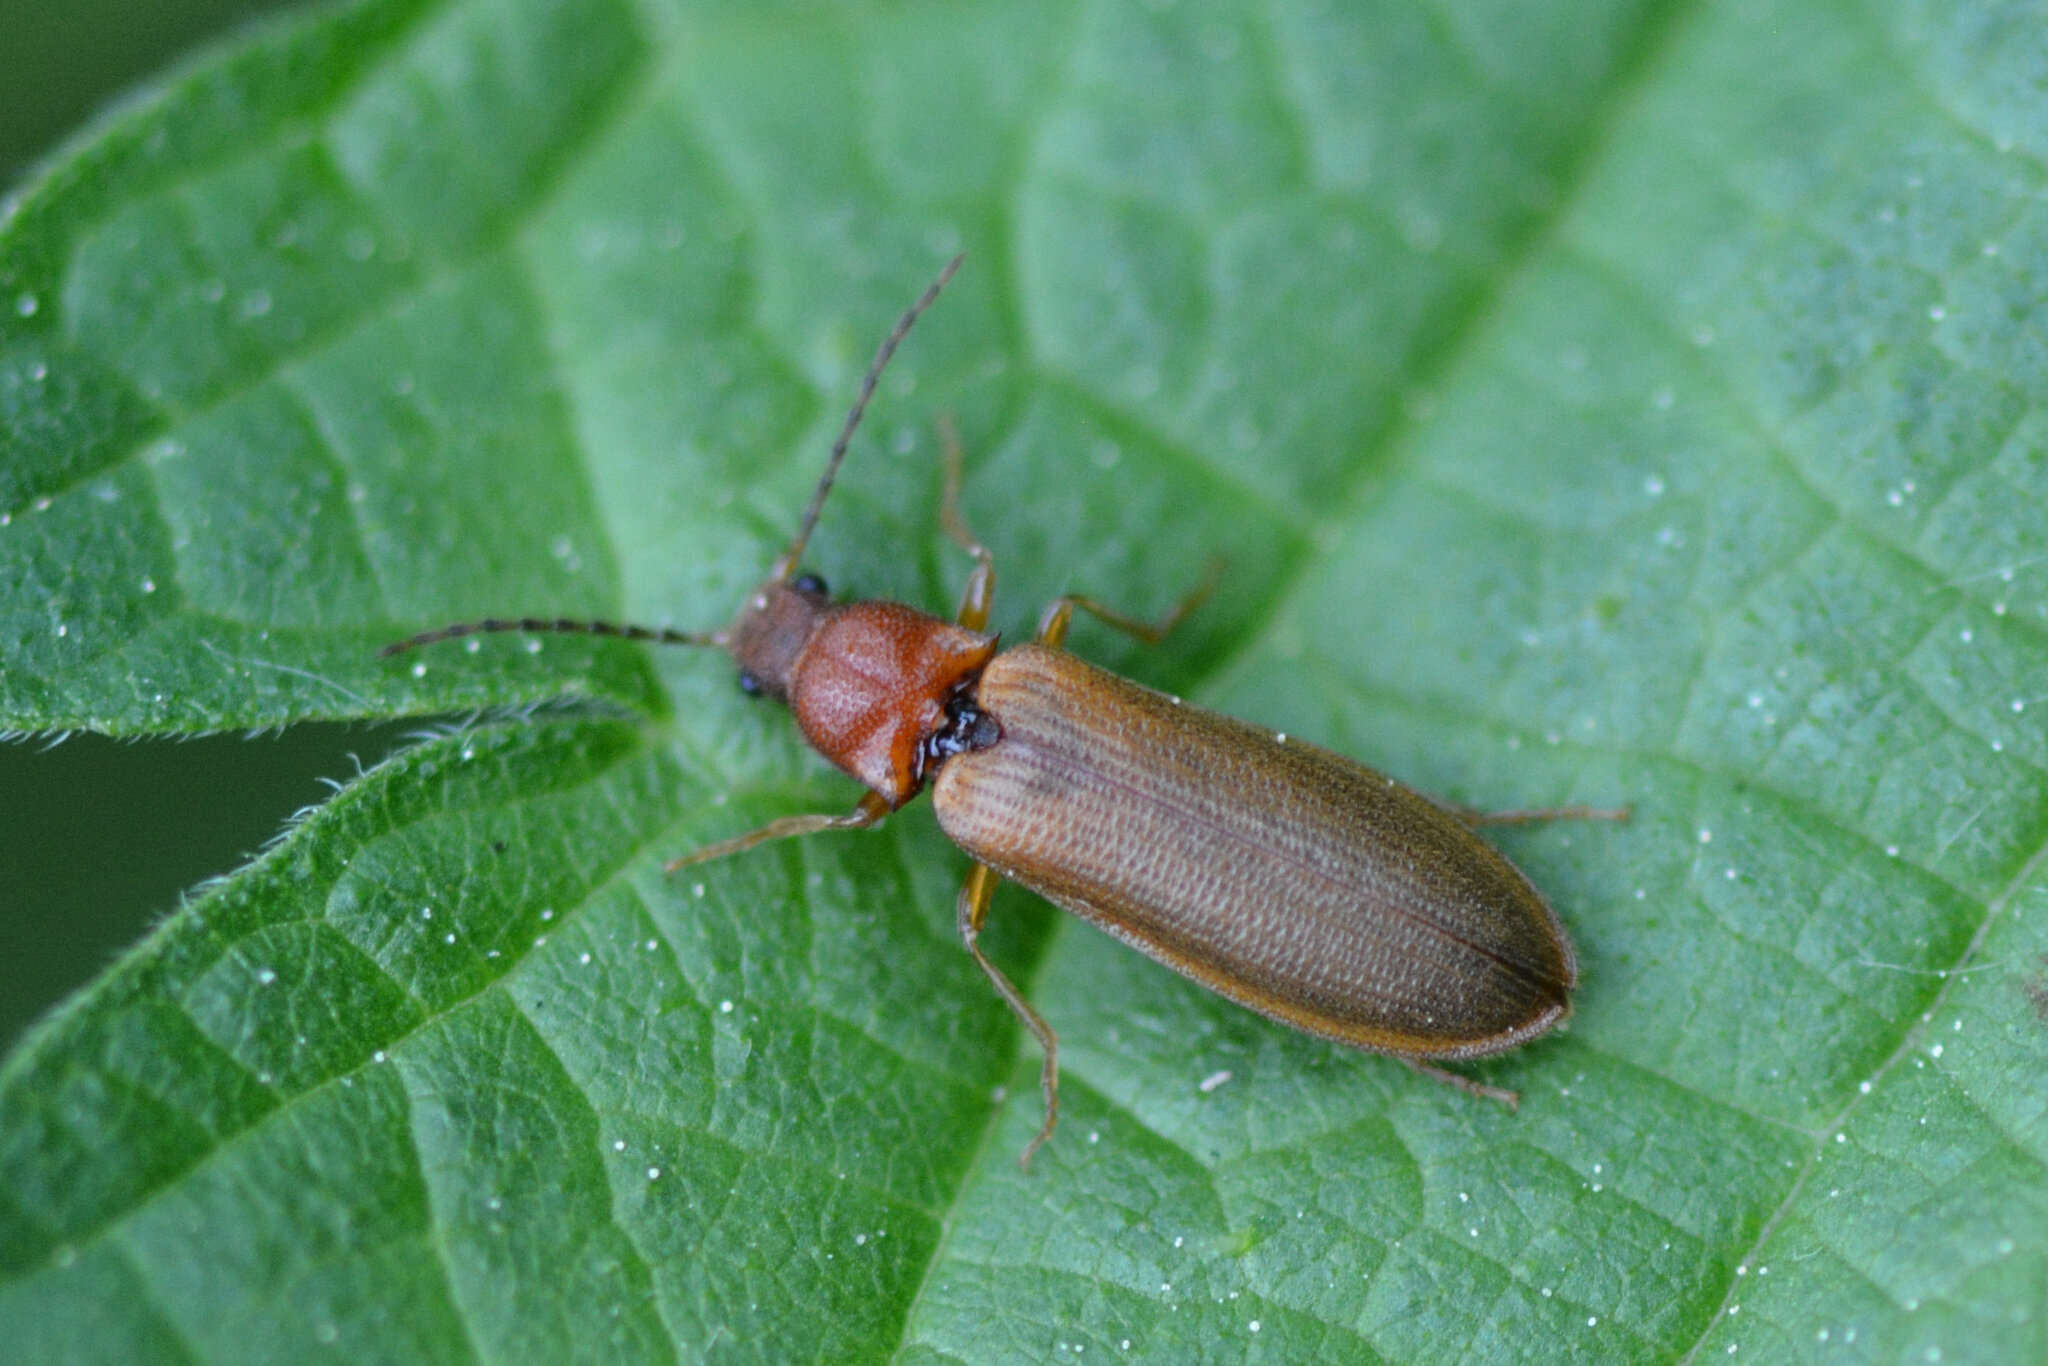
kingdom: Animalia
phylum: Arthropoda
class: Insecta
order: Coleoptera
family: Elateridae
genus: Denticollis
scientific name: Denticollis linearis
